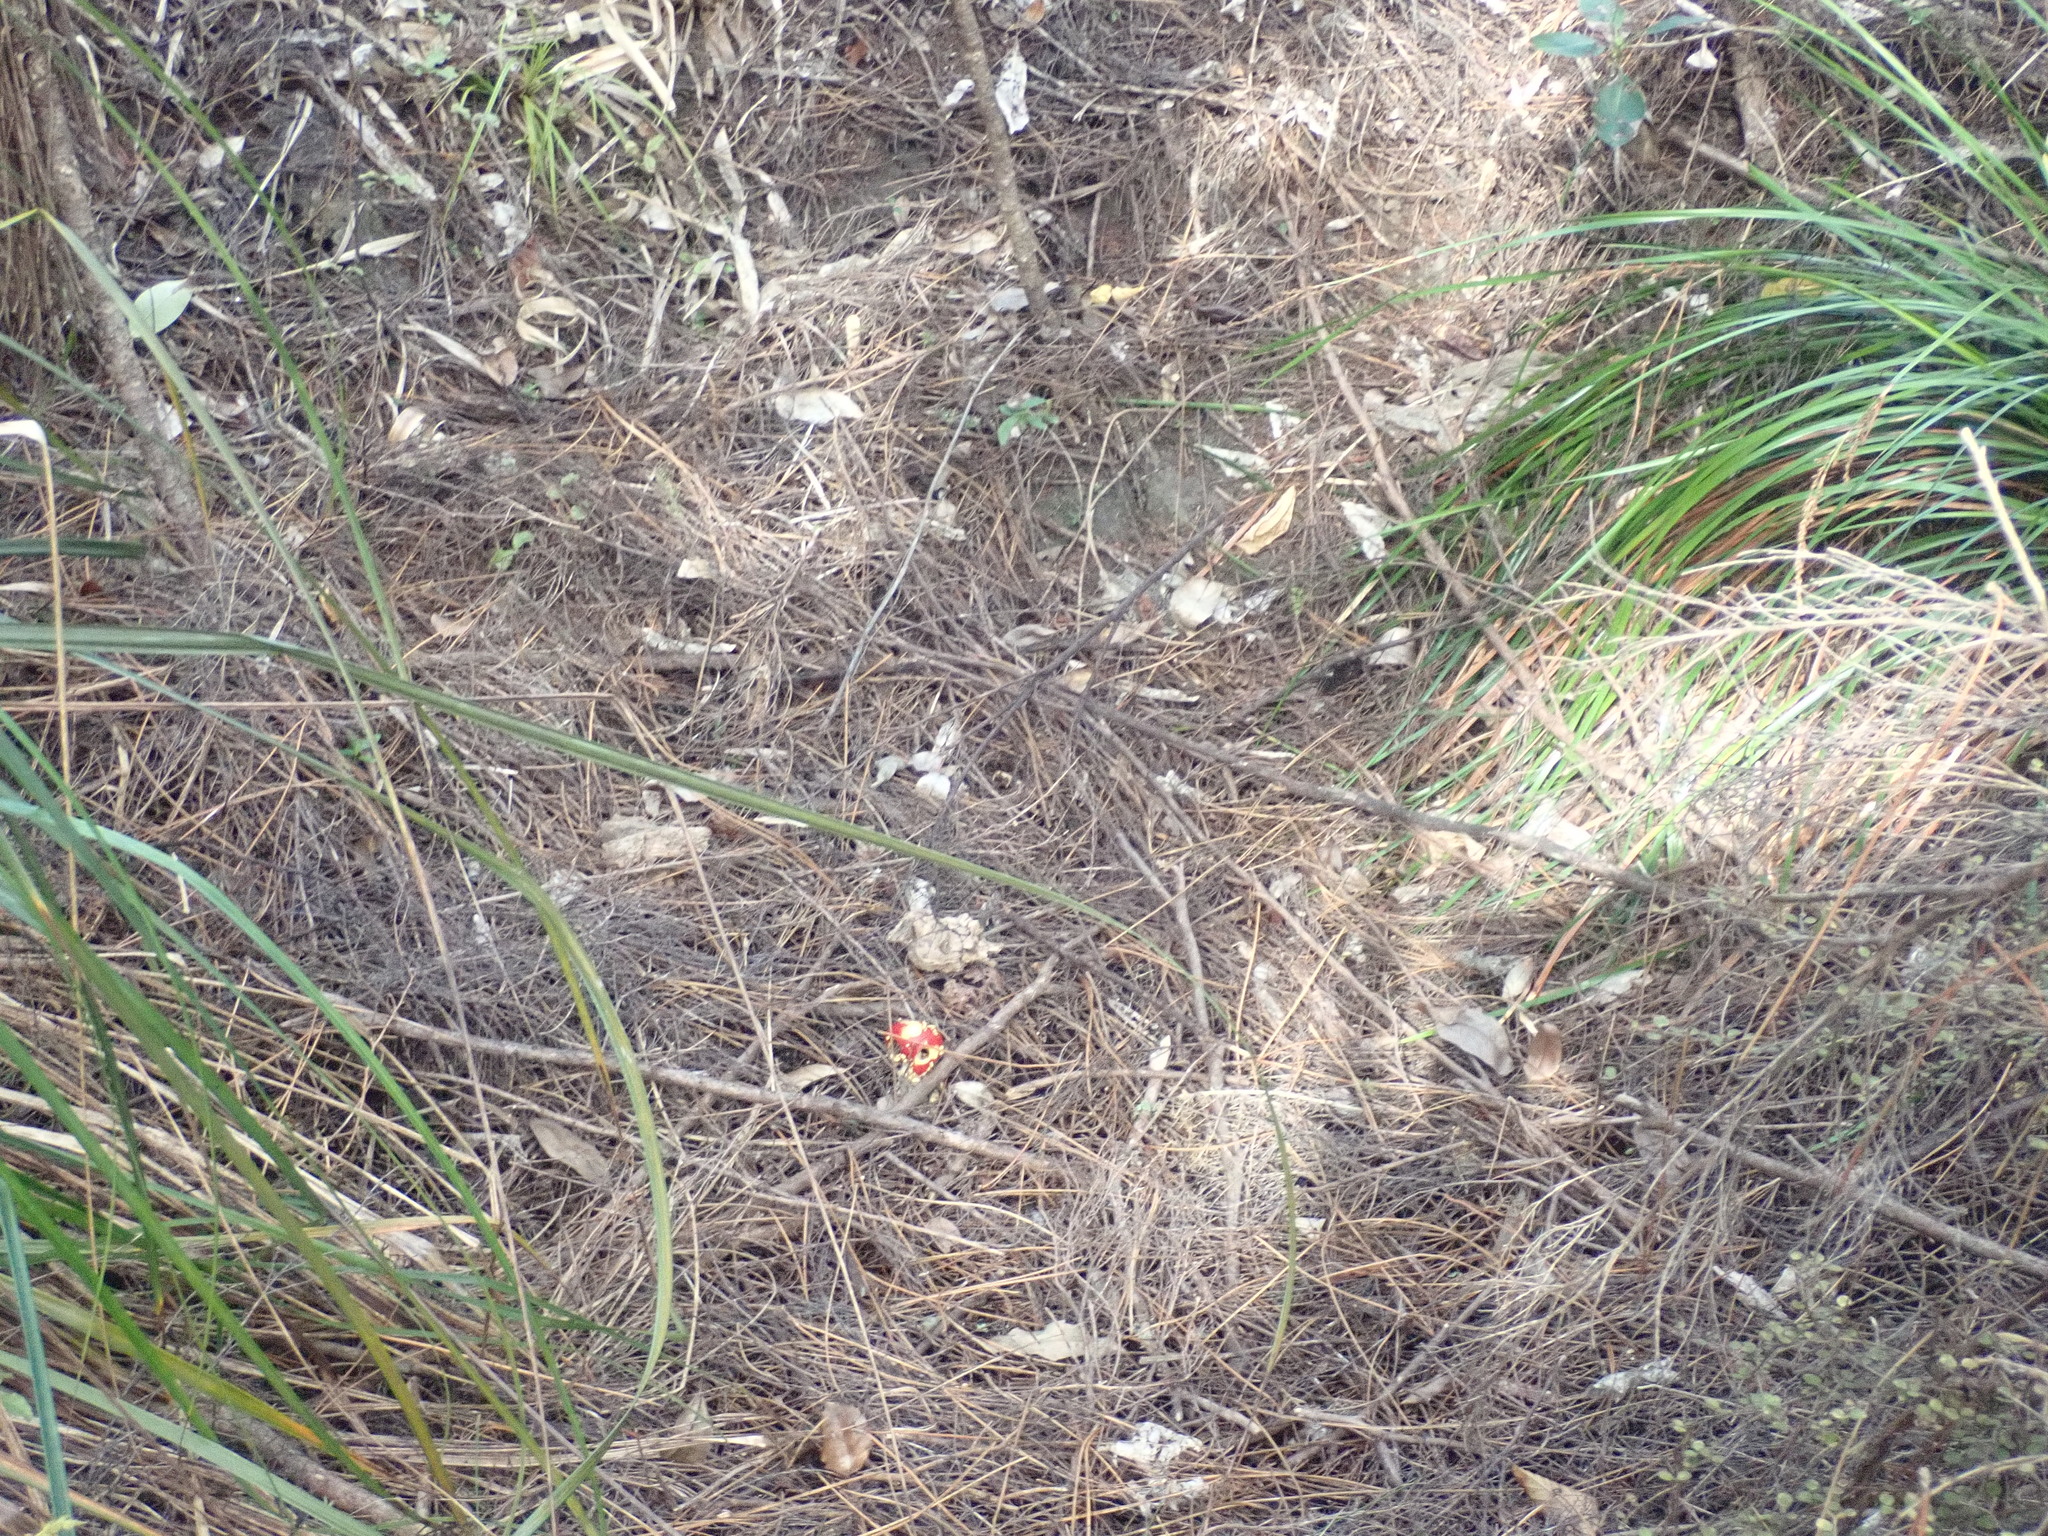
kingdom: Fungi
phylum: Basidiomycota
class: Agaricomycetes
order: Agaricales
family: Amanitaceae
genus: Amanita
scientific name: Amanita muscaria
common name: Fly agaric
